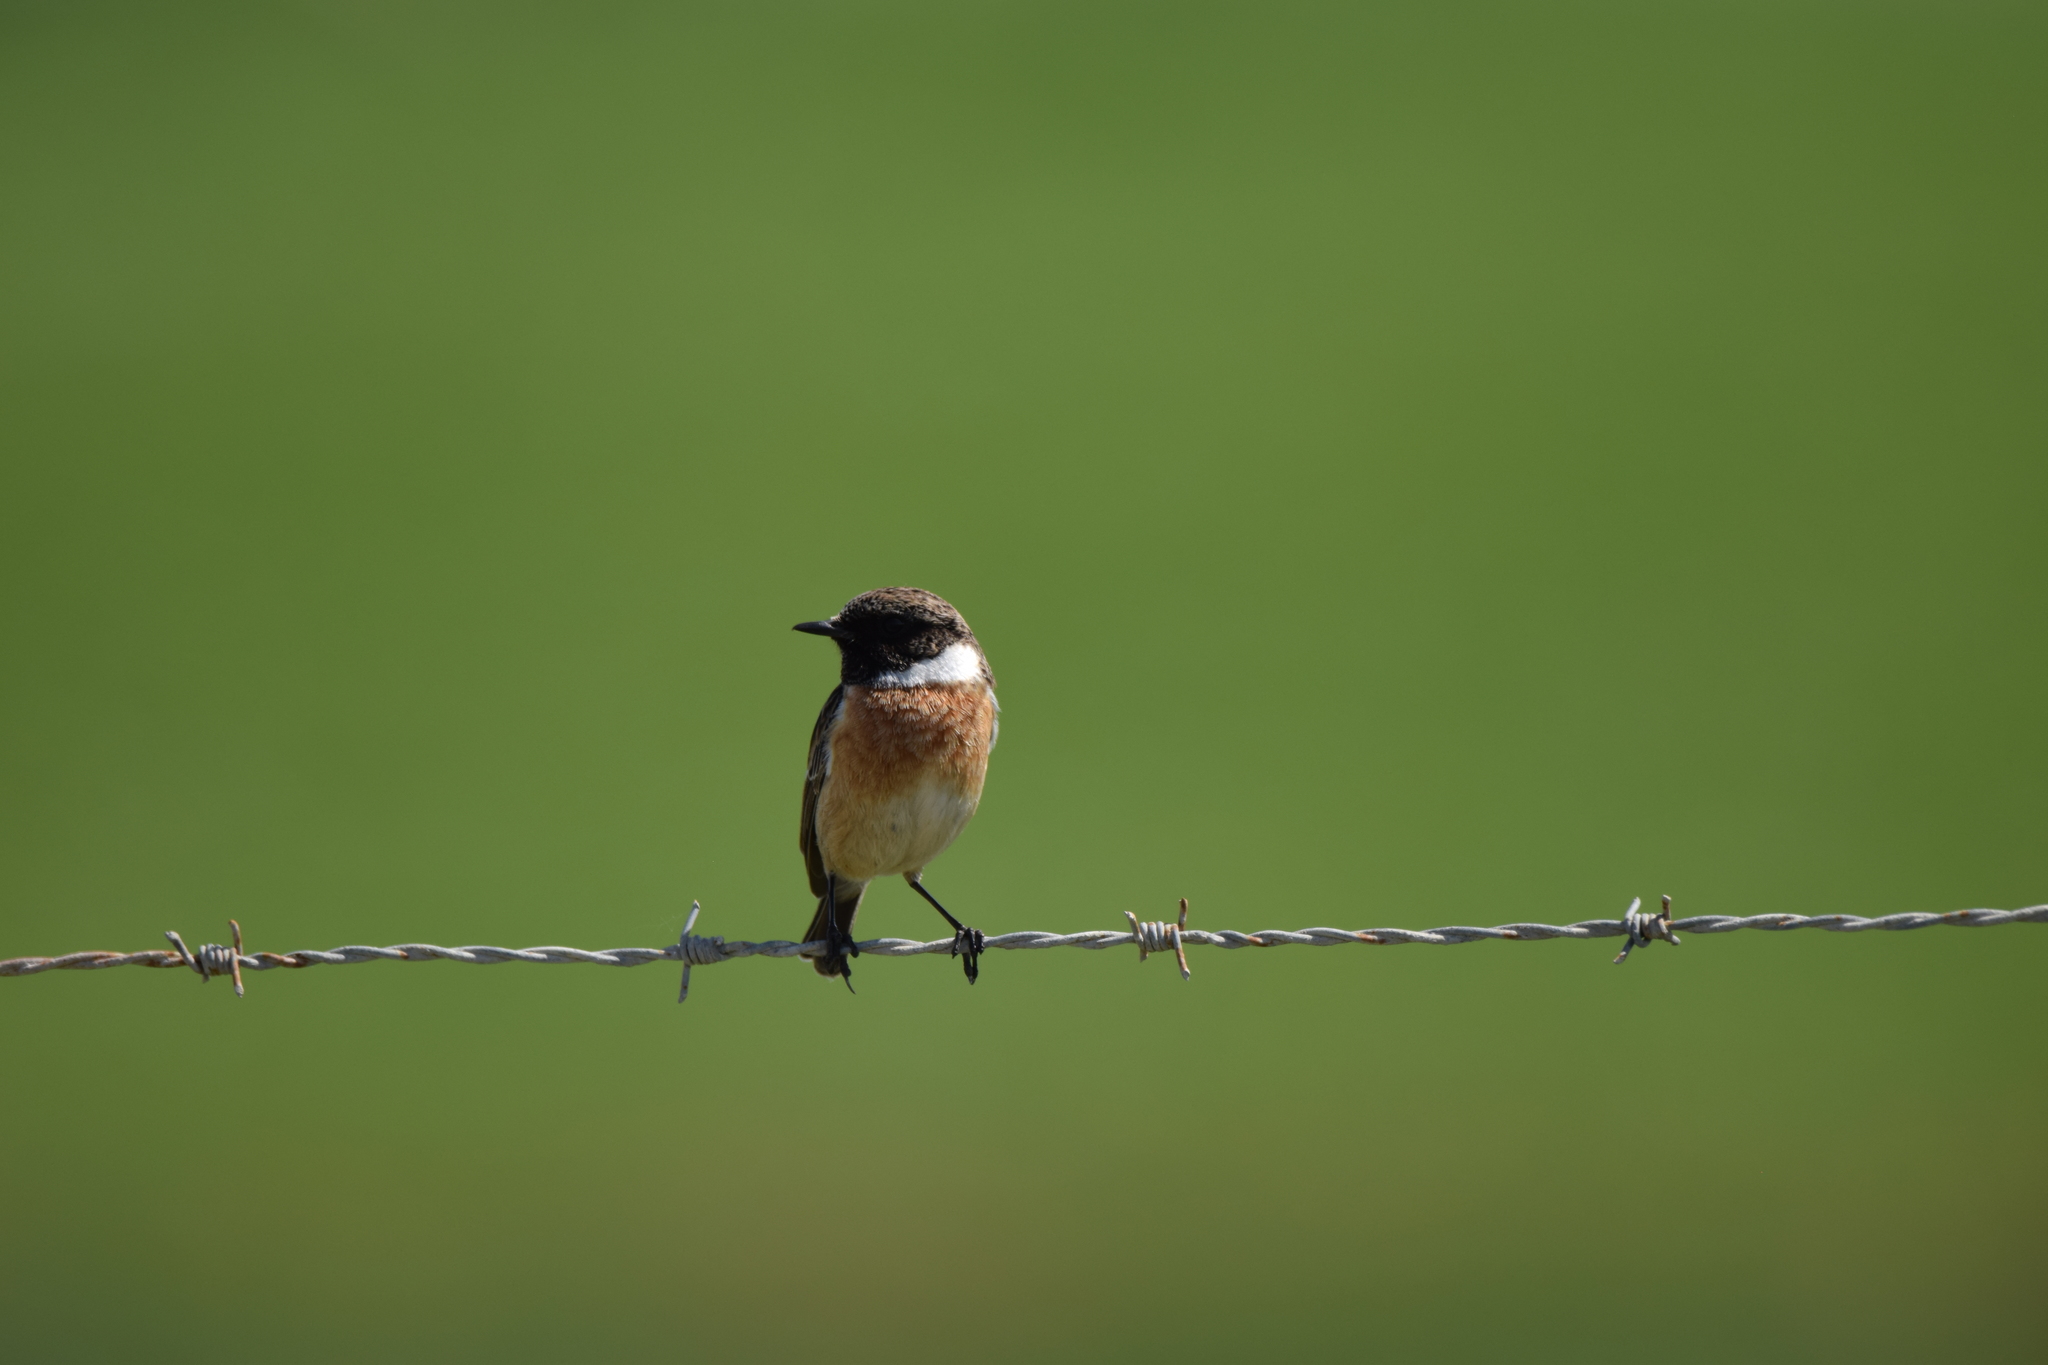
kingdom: Animalia
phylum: Chordata
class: Aves
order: Passeriformes
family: Muscicapidae
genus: Saxicola
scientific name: Saxicola rubicola
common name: European stonechat
